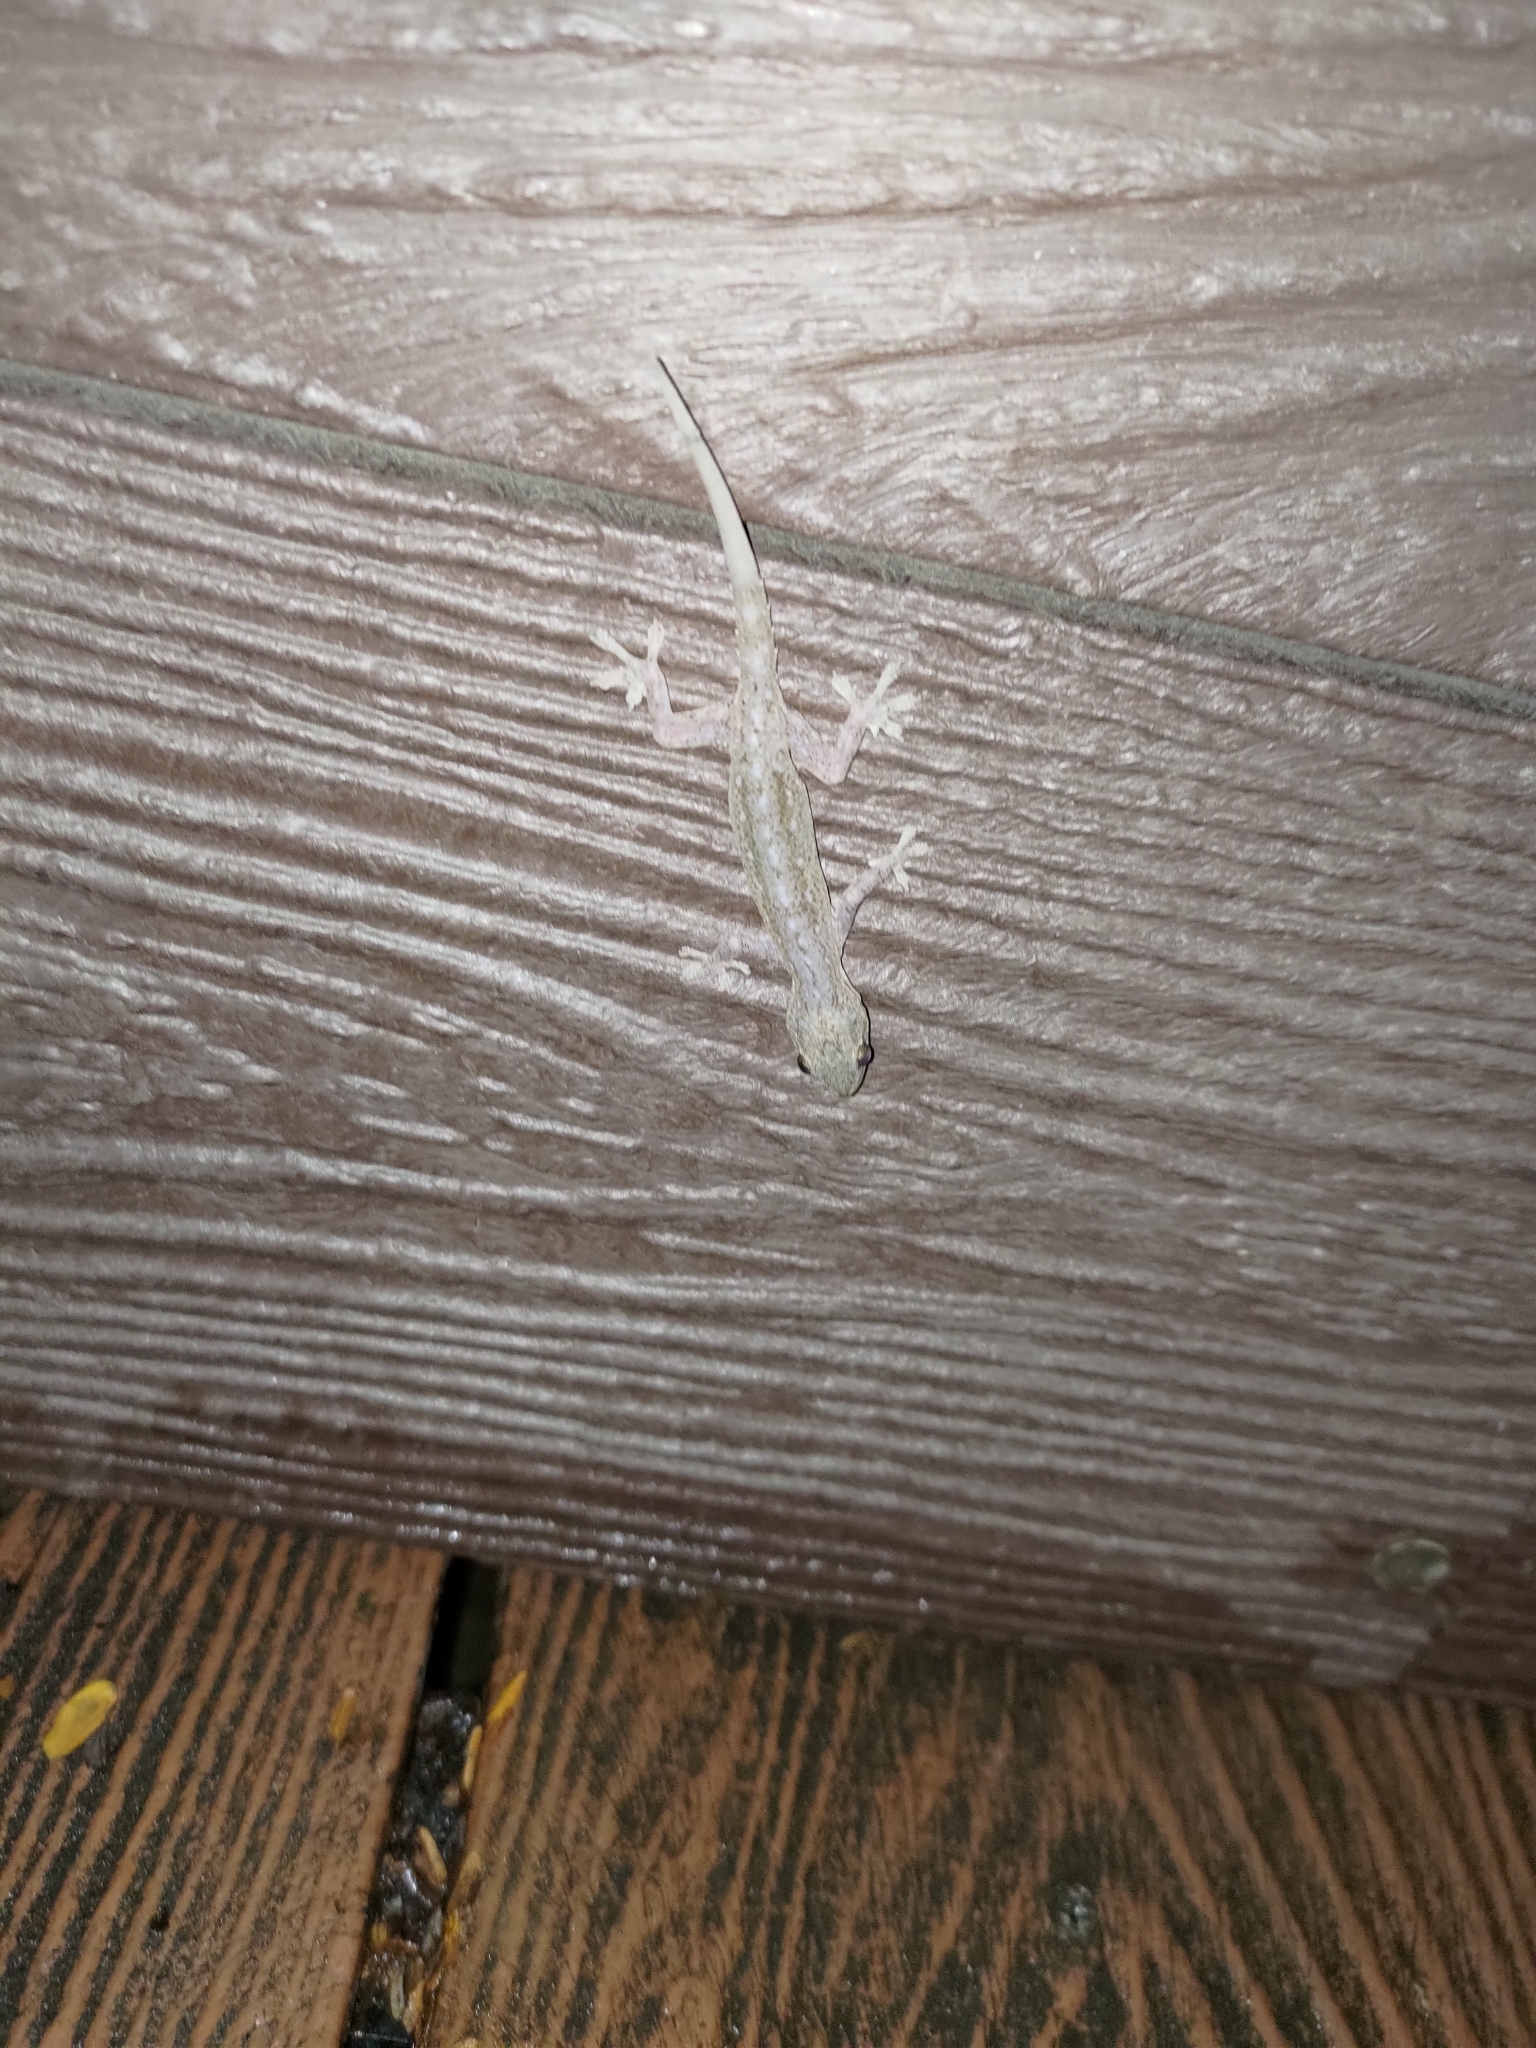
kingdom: Animalia
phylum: Chordata
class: Squamata
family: Gekkonidae
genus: Hemidactylus
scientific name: Hemidactylus frenatus
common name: Common house gecko
